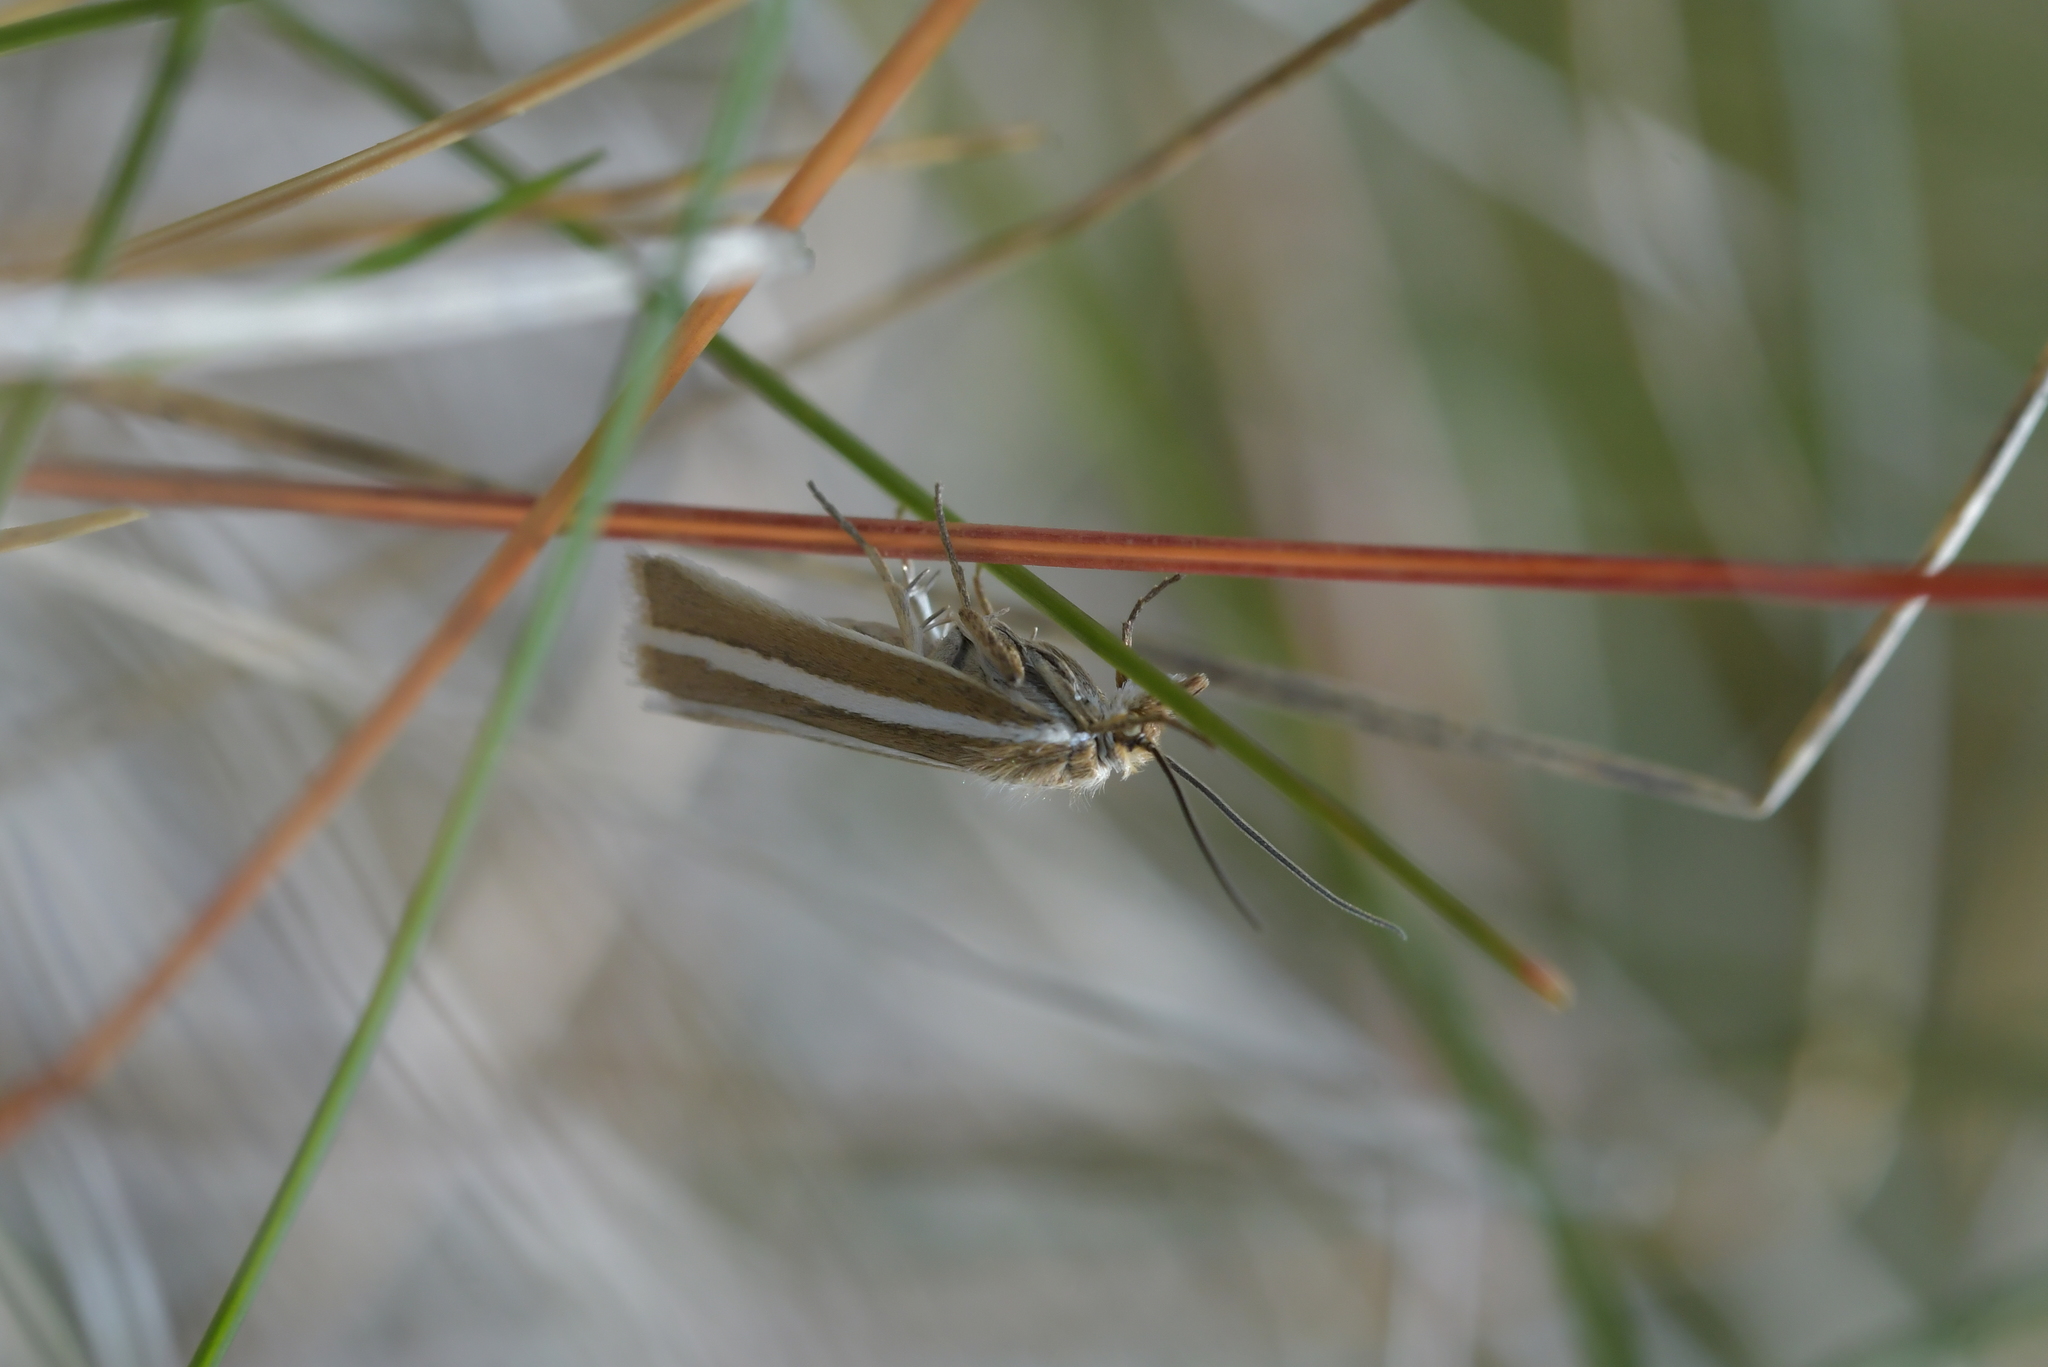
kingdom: Animalia
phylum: Arthropoda
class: Insecta
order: Lepidoptera
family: Crambidae
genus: Orocrambus
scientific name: Orocrambus aethonellus
